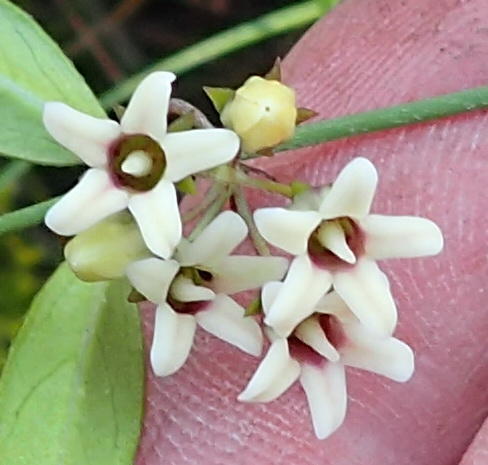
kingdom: Plantae
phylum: Tracheophyta
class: Magnoliopsida
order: Gentianales
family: Apocynaceae
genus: Astephanus
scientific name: Astephanus triflorus
